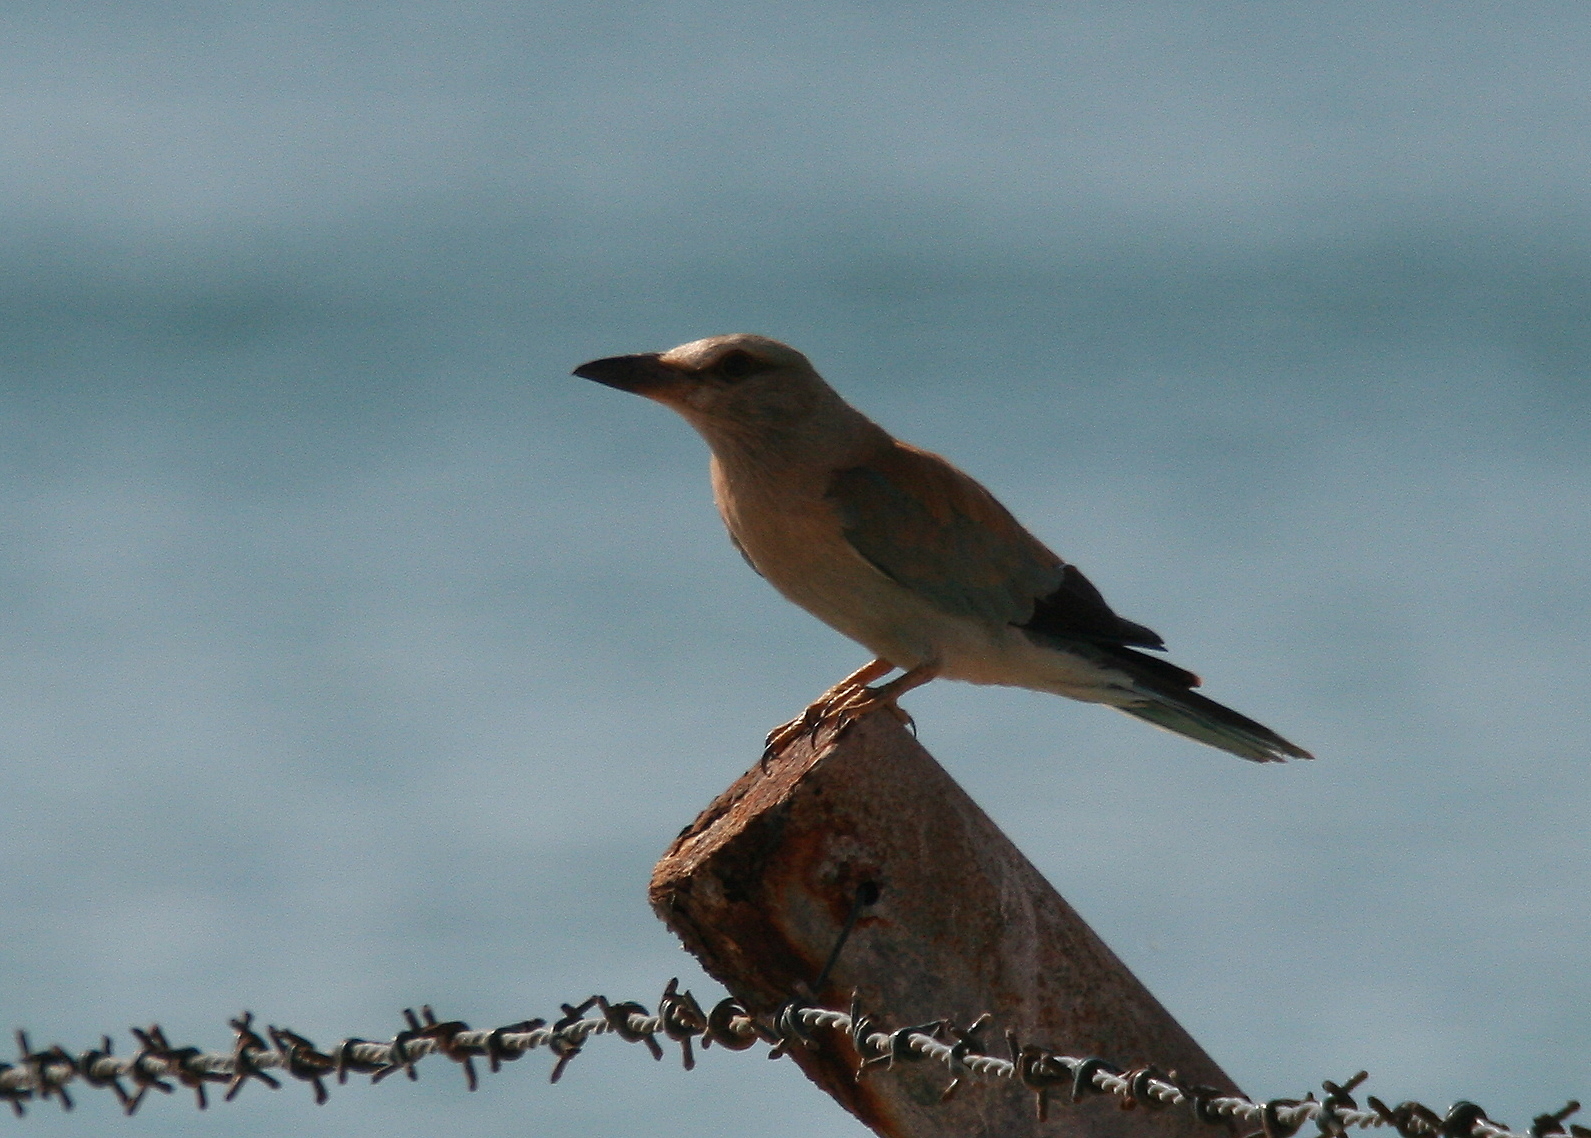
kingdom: Animalia
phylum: Chordata
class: Aves
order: Coraciiformes
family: Coraciidae
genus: Coracias
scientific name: Coracias garrulus
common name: European roller
